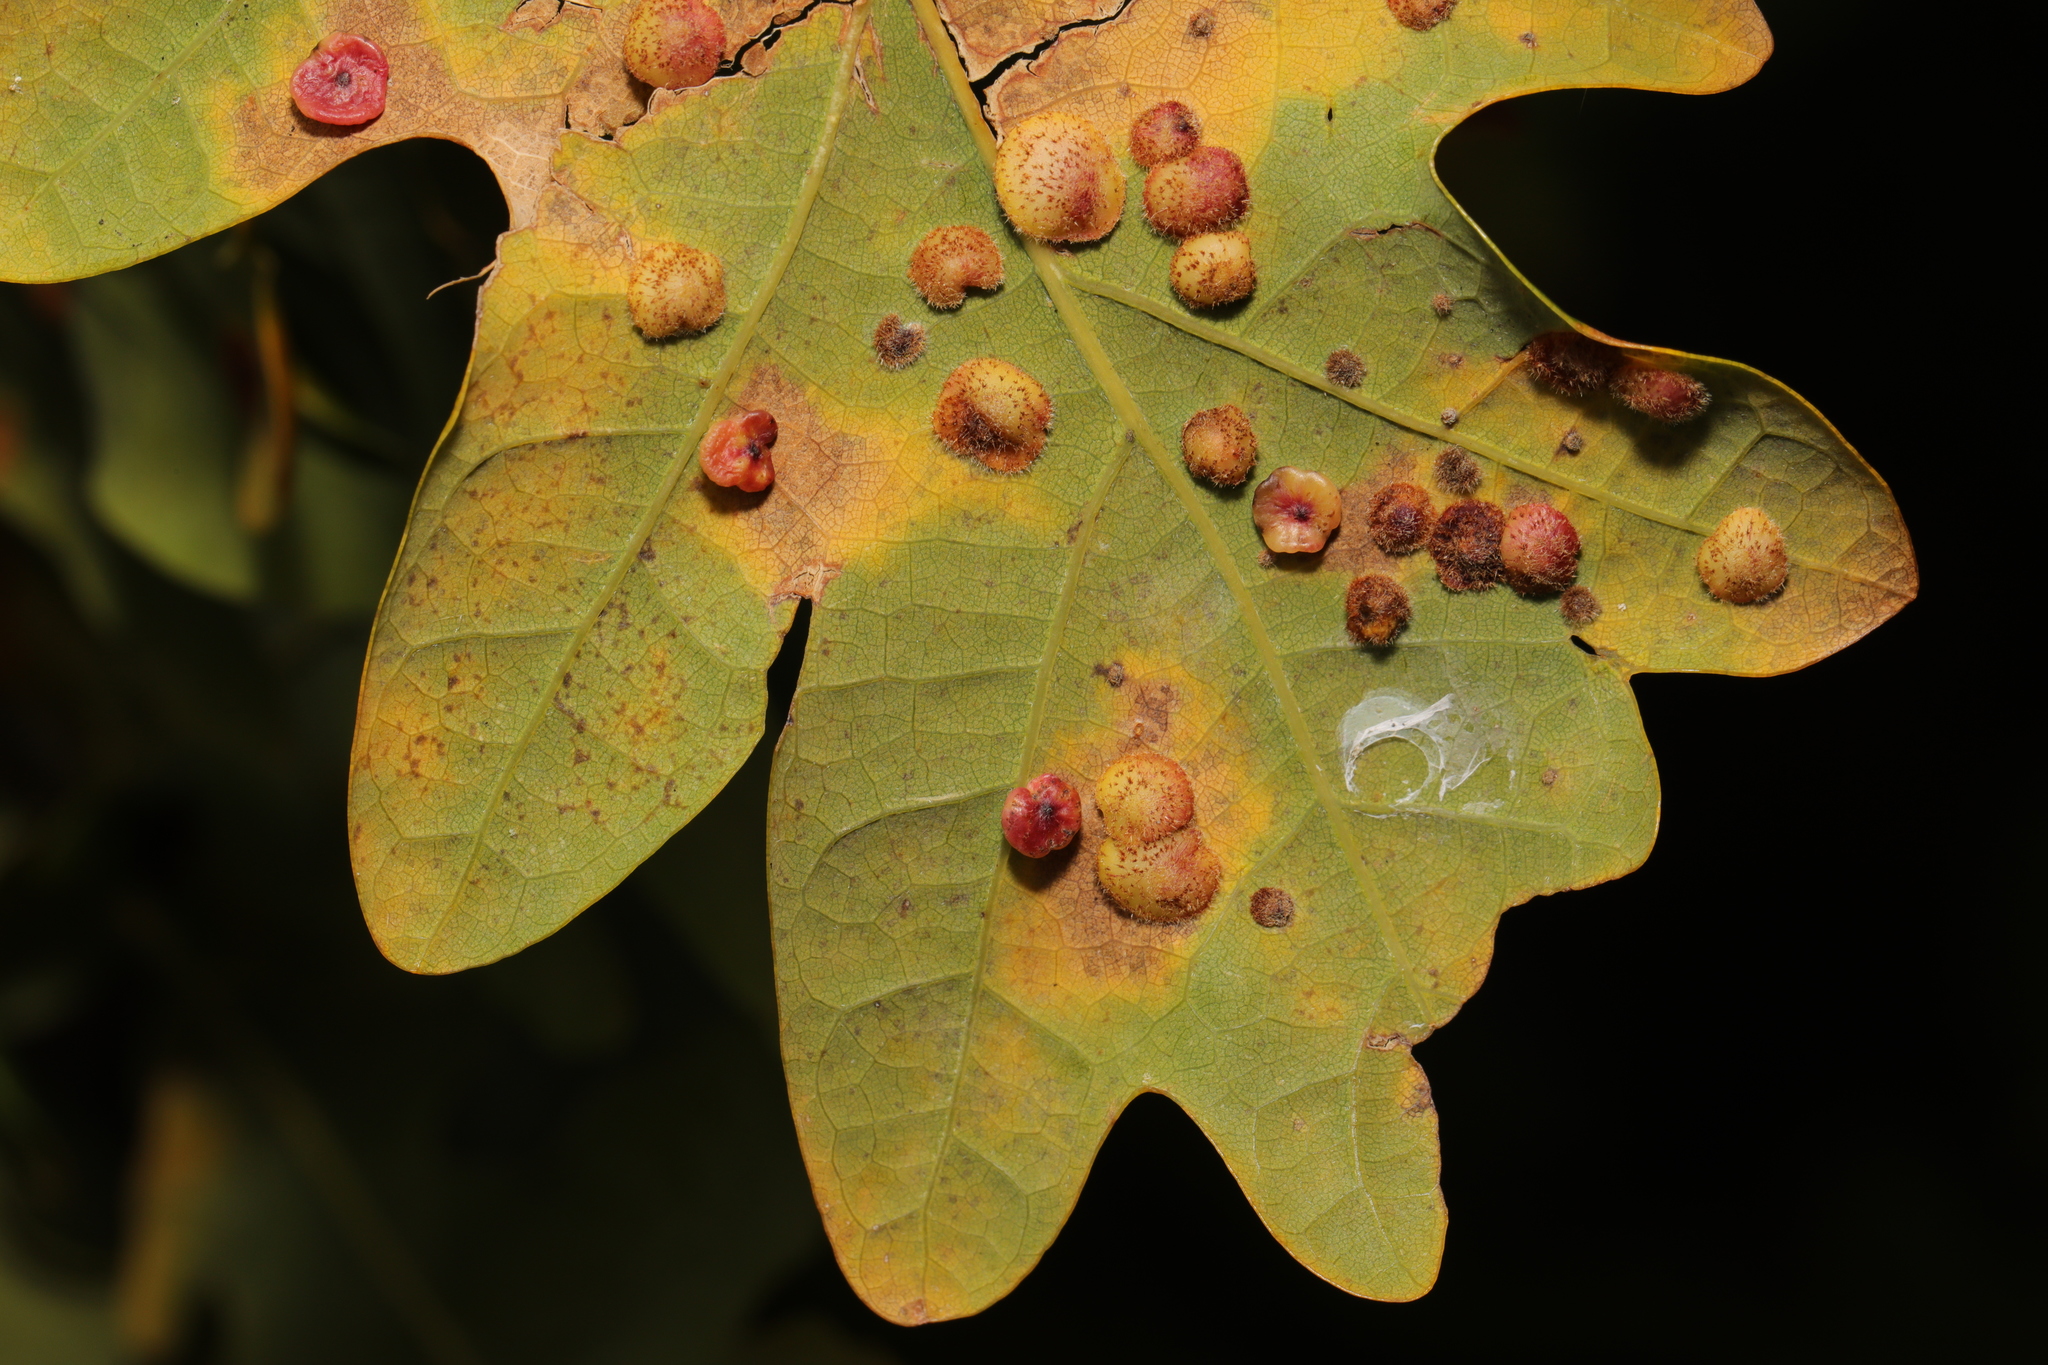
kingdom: Animalia
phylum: Arthropoda
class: Insecta
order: Hymenoptera
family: Cynipidae
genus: Neuroterus
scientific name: Neuroterus quercusbaccarum
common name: Common spangle gall
